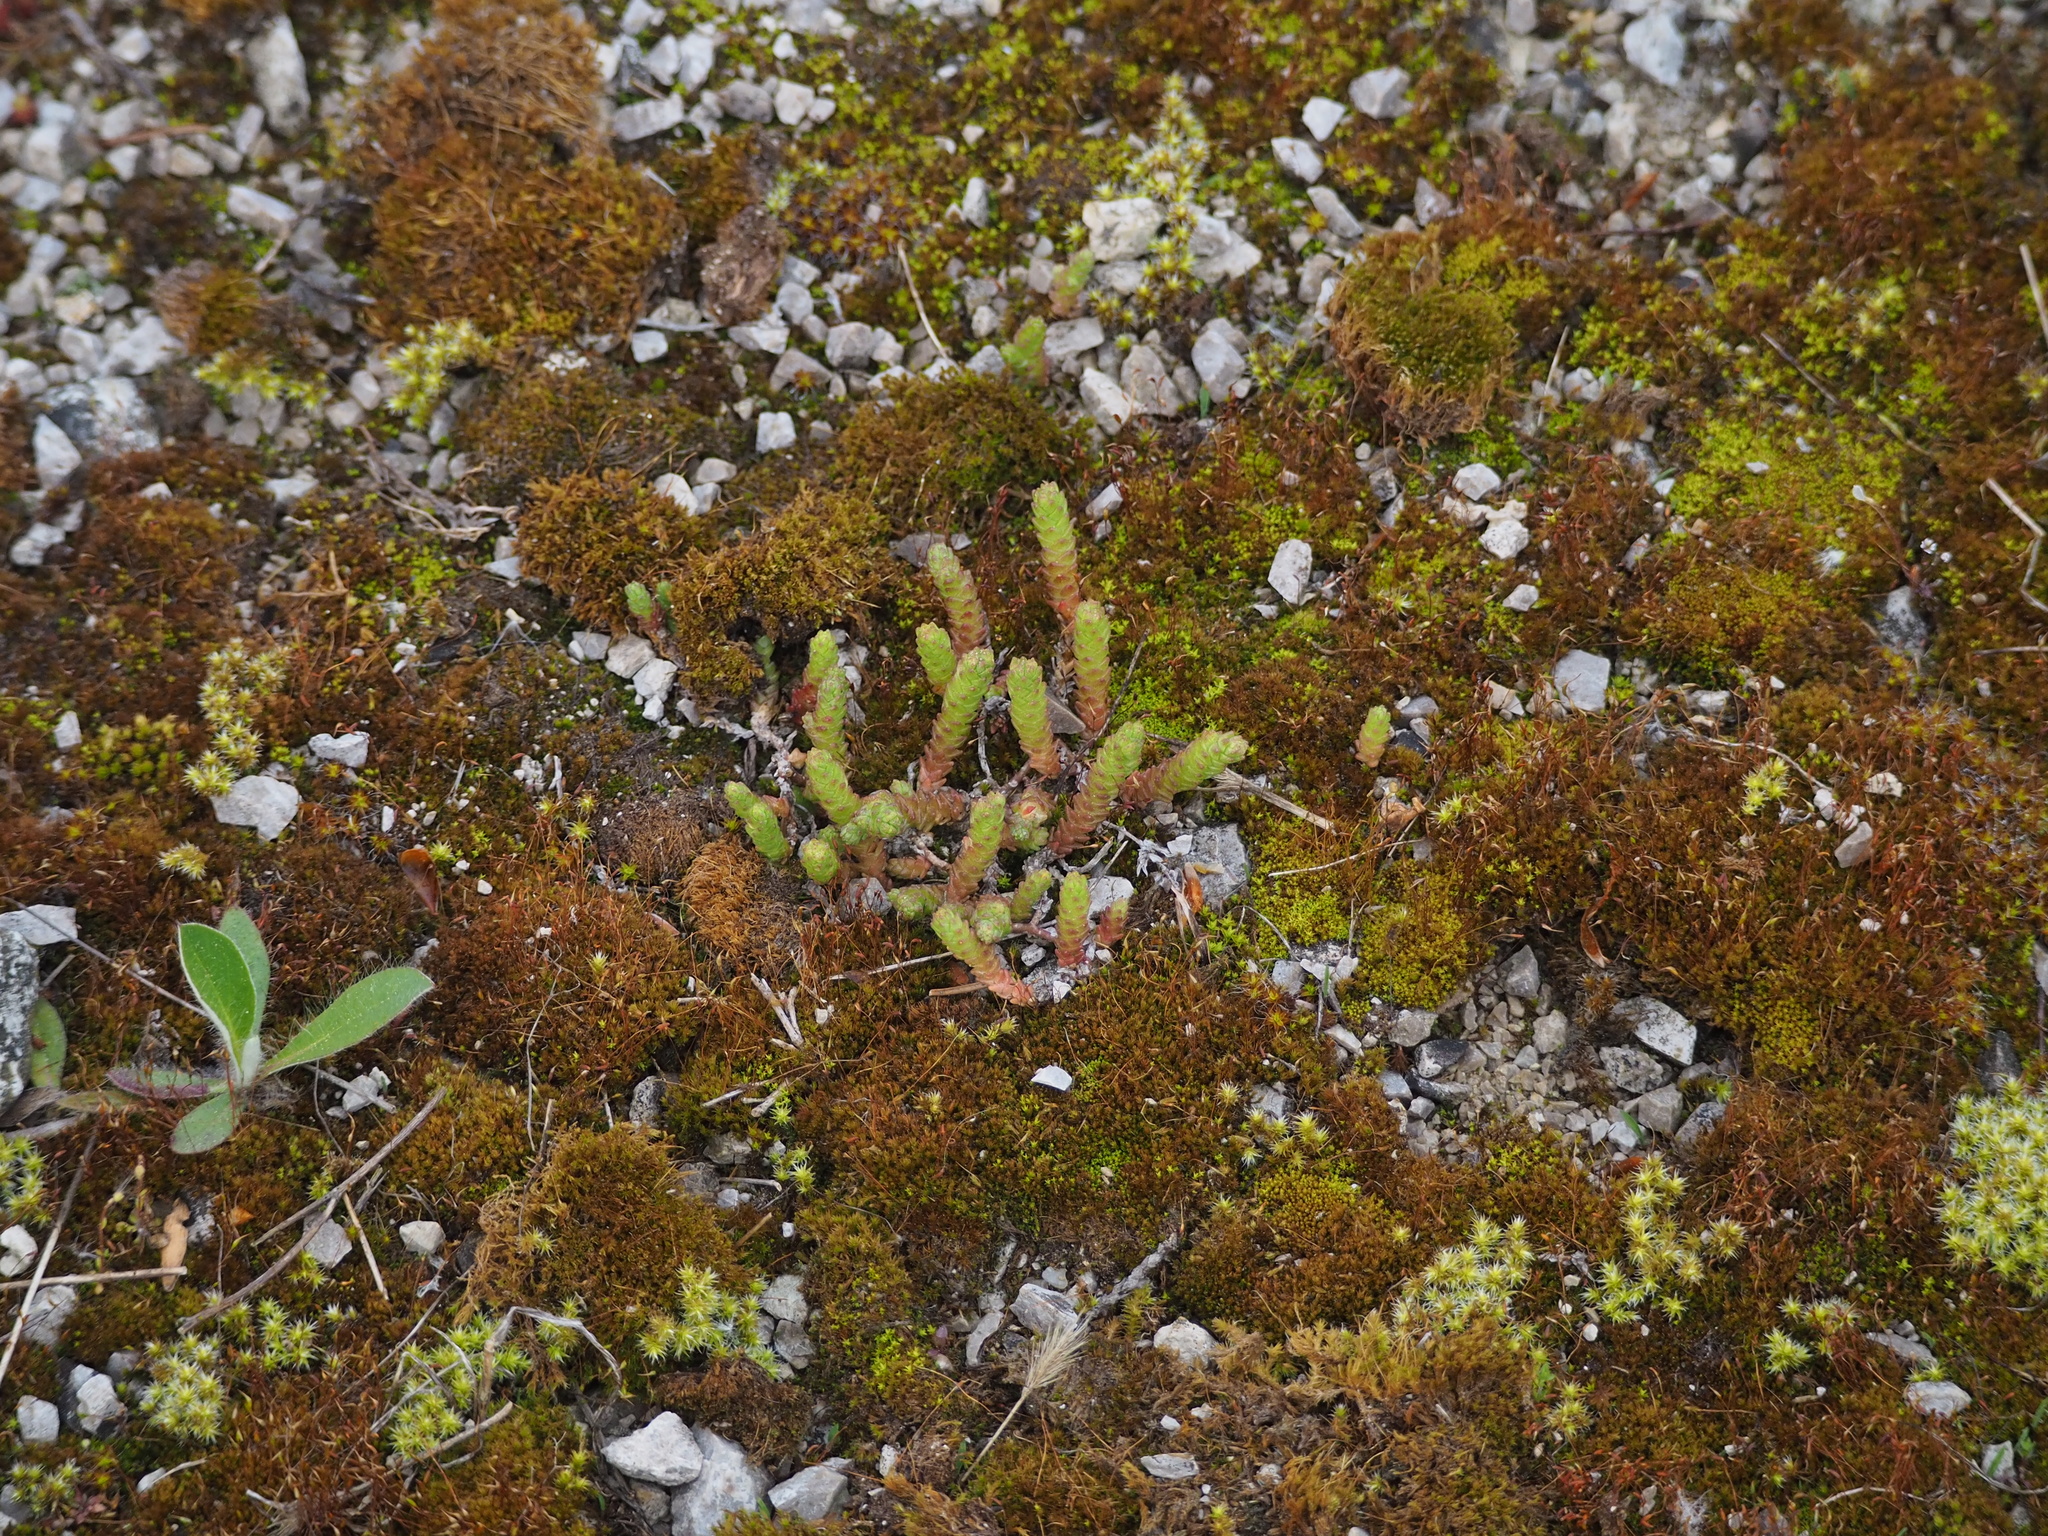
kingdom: Plantae
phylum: Tracheophyta
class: Magnoliopsida
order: Saxifragales
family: Crassulaceae
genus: Sedum
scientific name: Sedum acre
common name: Biting stonecrop
